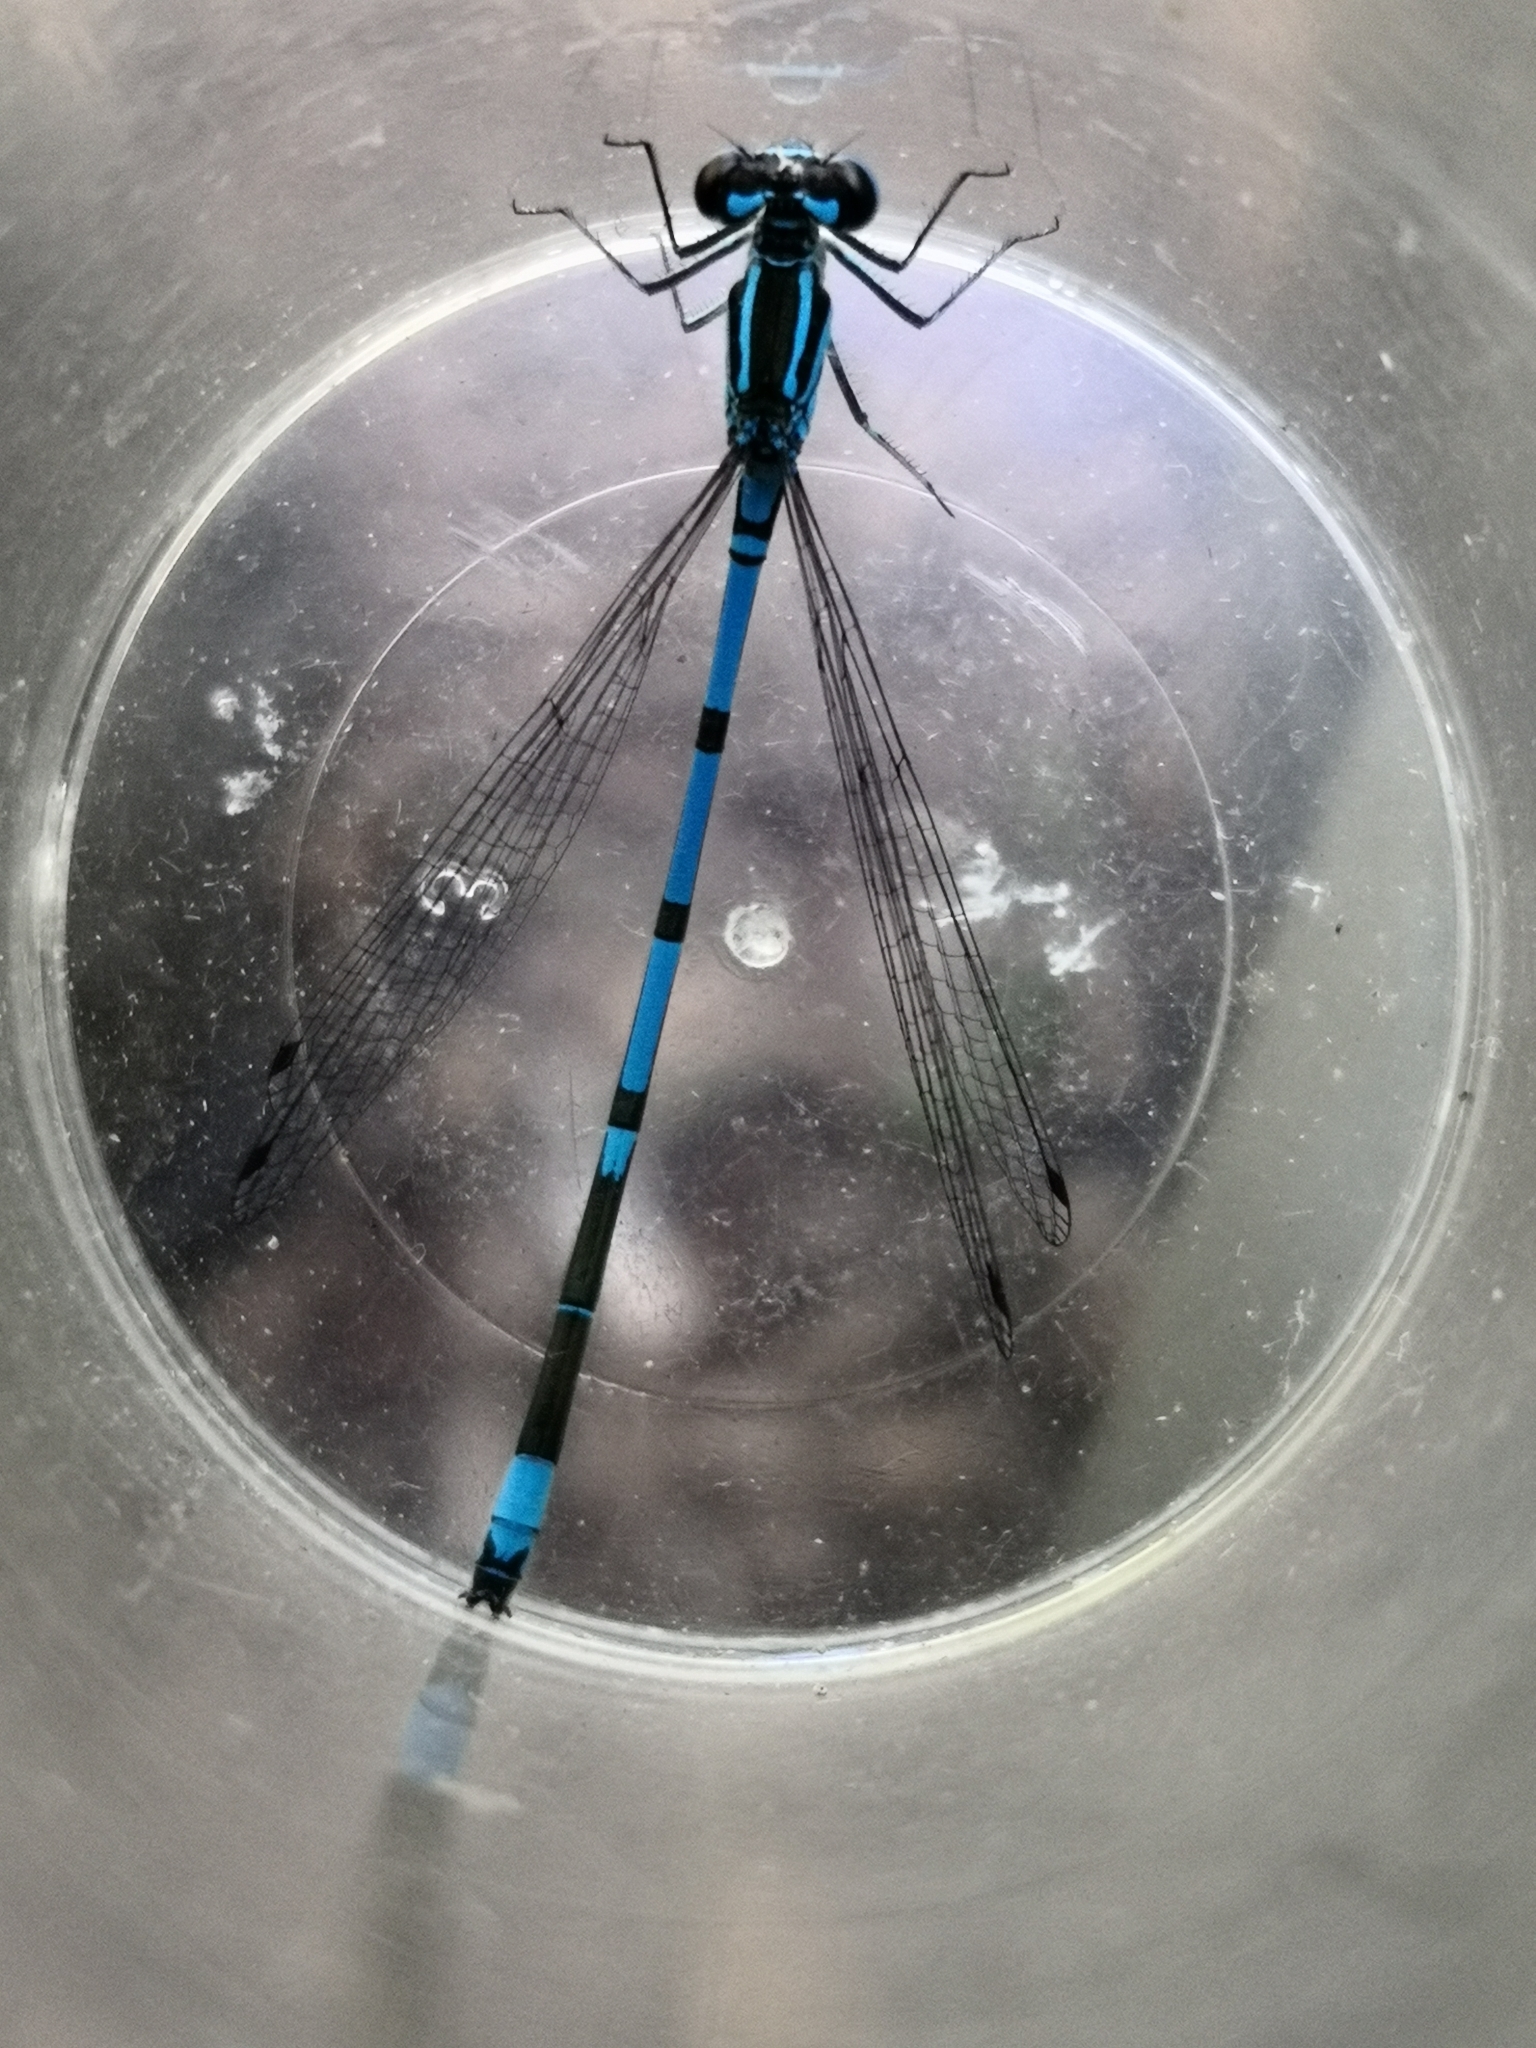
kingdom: Animalia
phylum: Arthropoda
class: Insecta
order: Odonata
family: Coenagrionidae
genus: Coenagrion
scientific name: Coenagrion puella
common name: Azure damselfly
